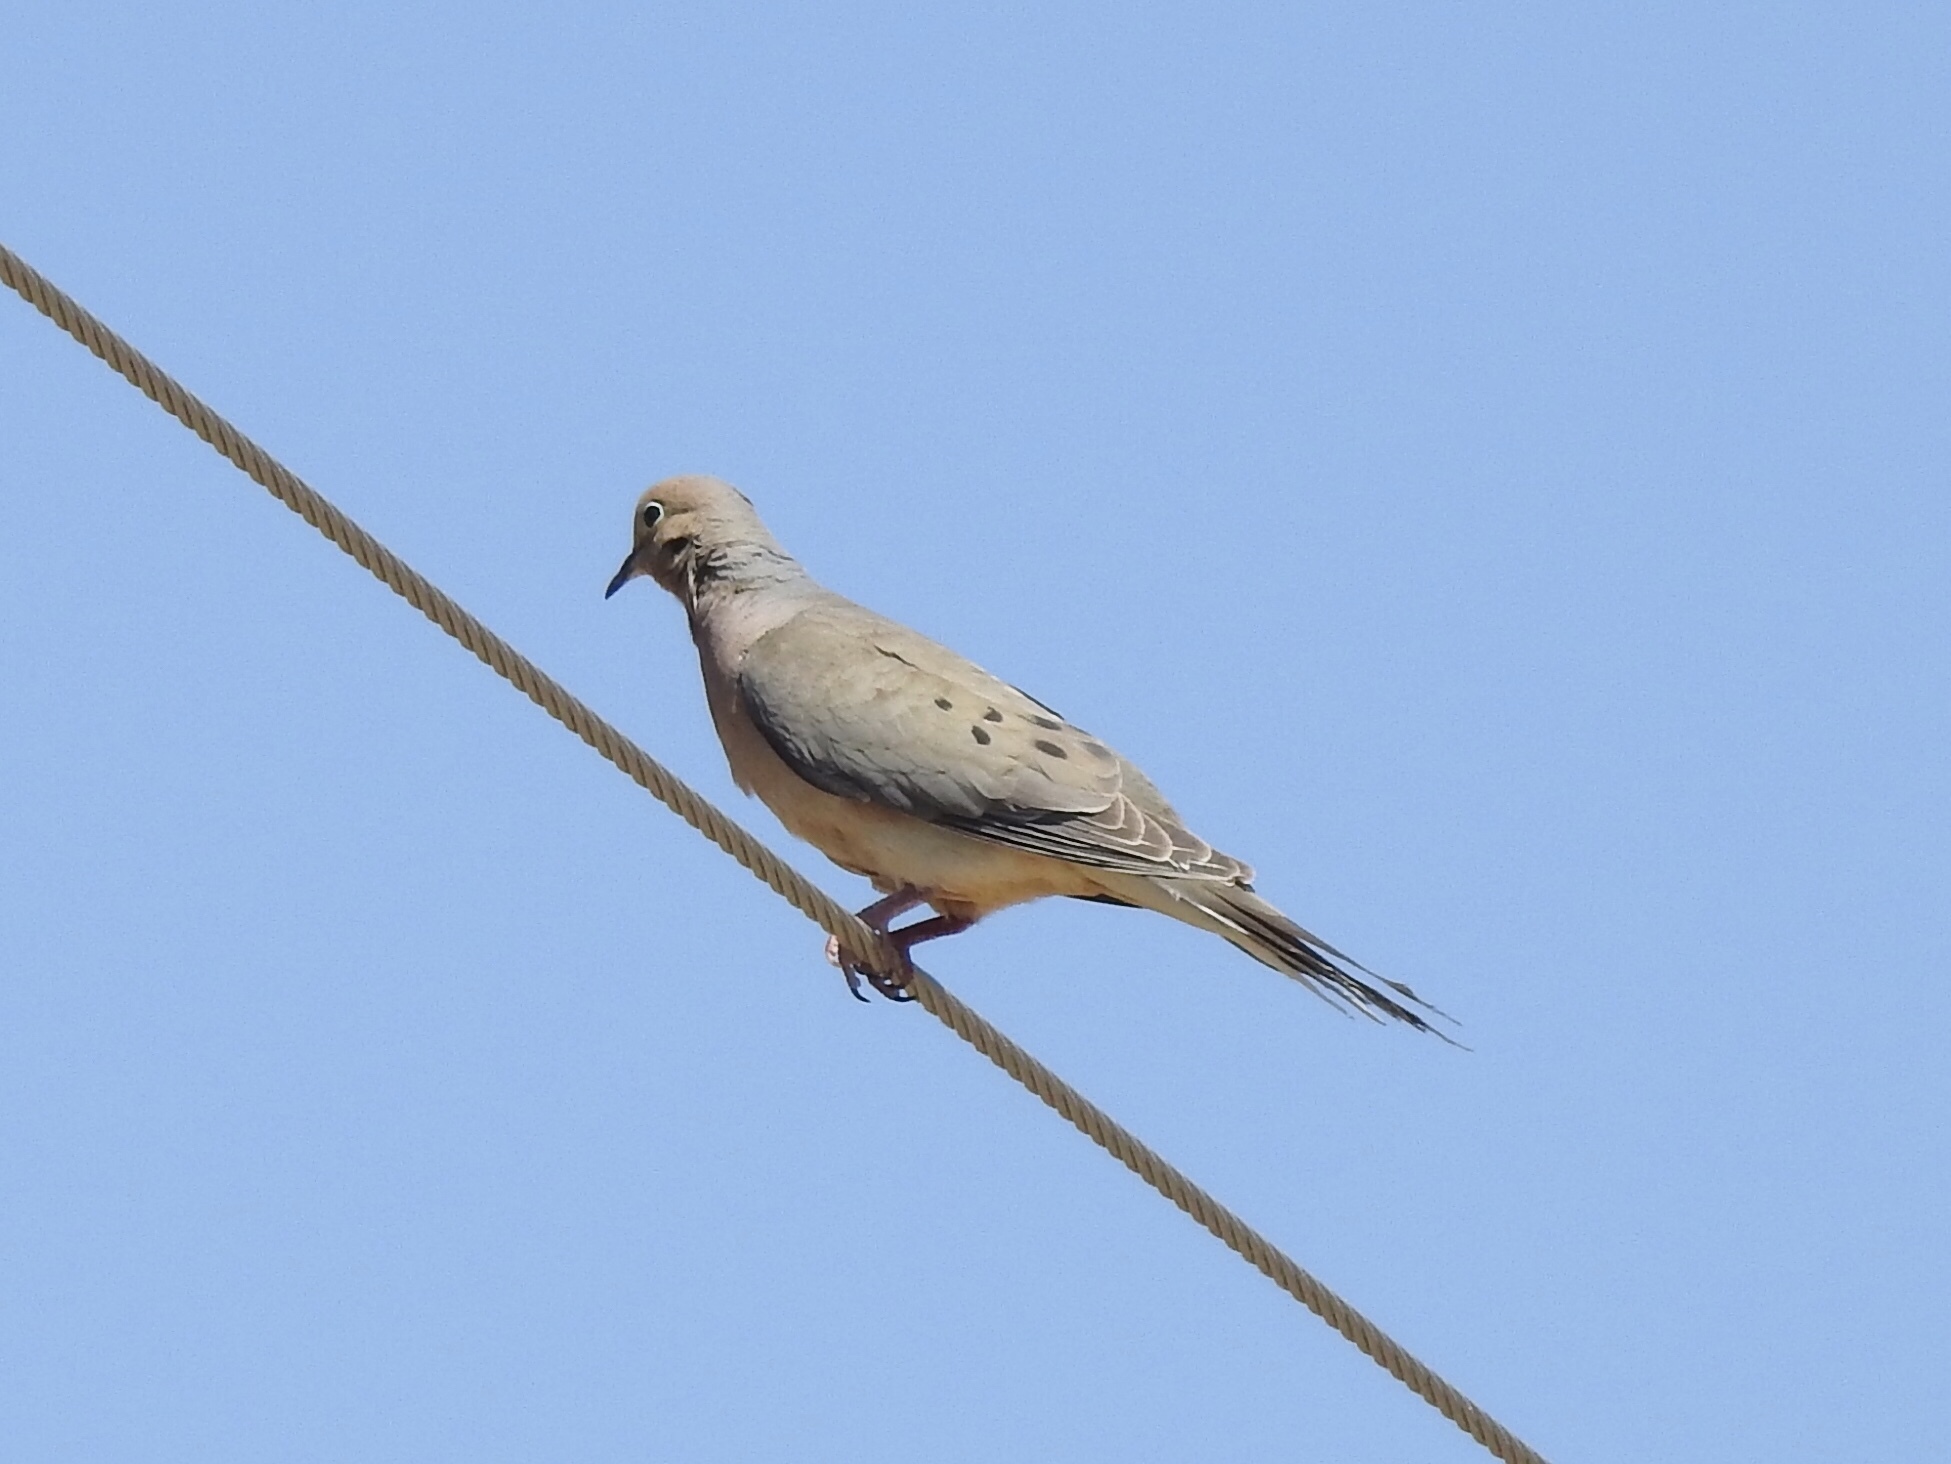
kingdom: Animalia
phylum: Chordata
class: Aves
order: Columbiformes
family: Columbidae
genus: Zenaida
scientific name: Zenaida macroura
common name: Mourning dove
